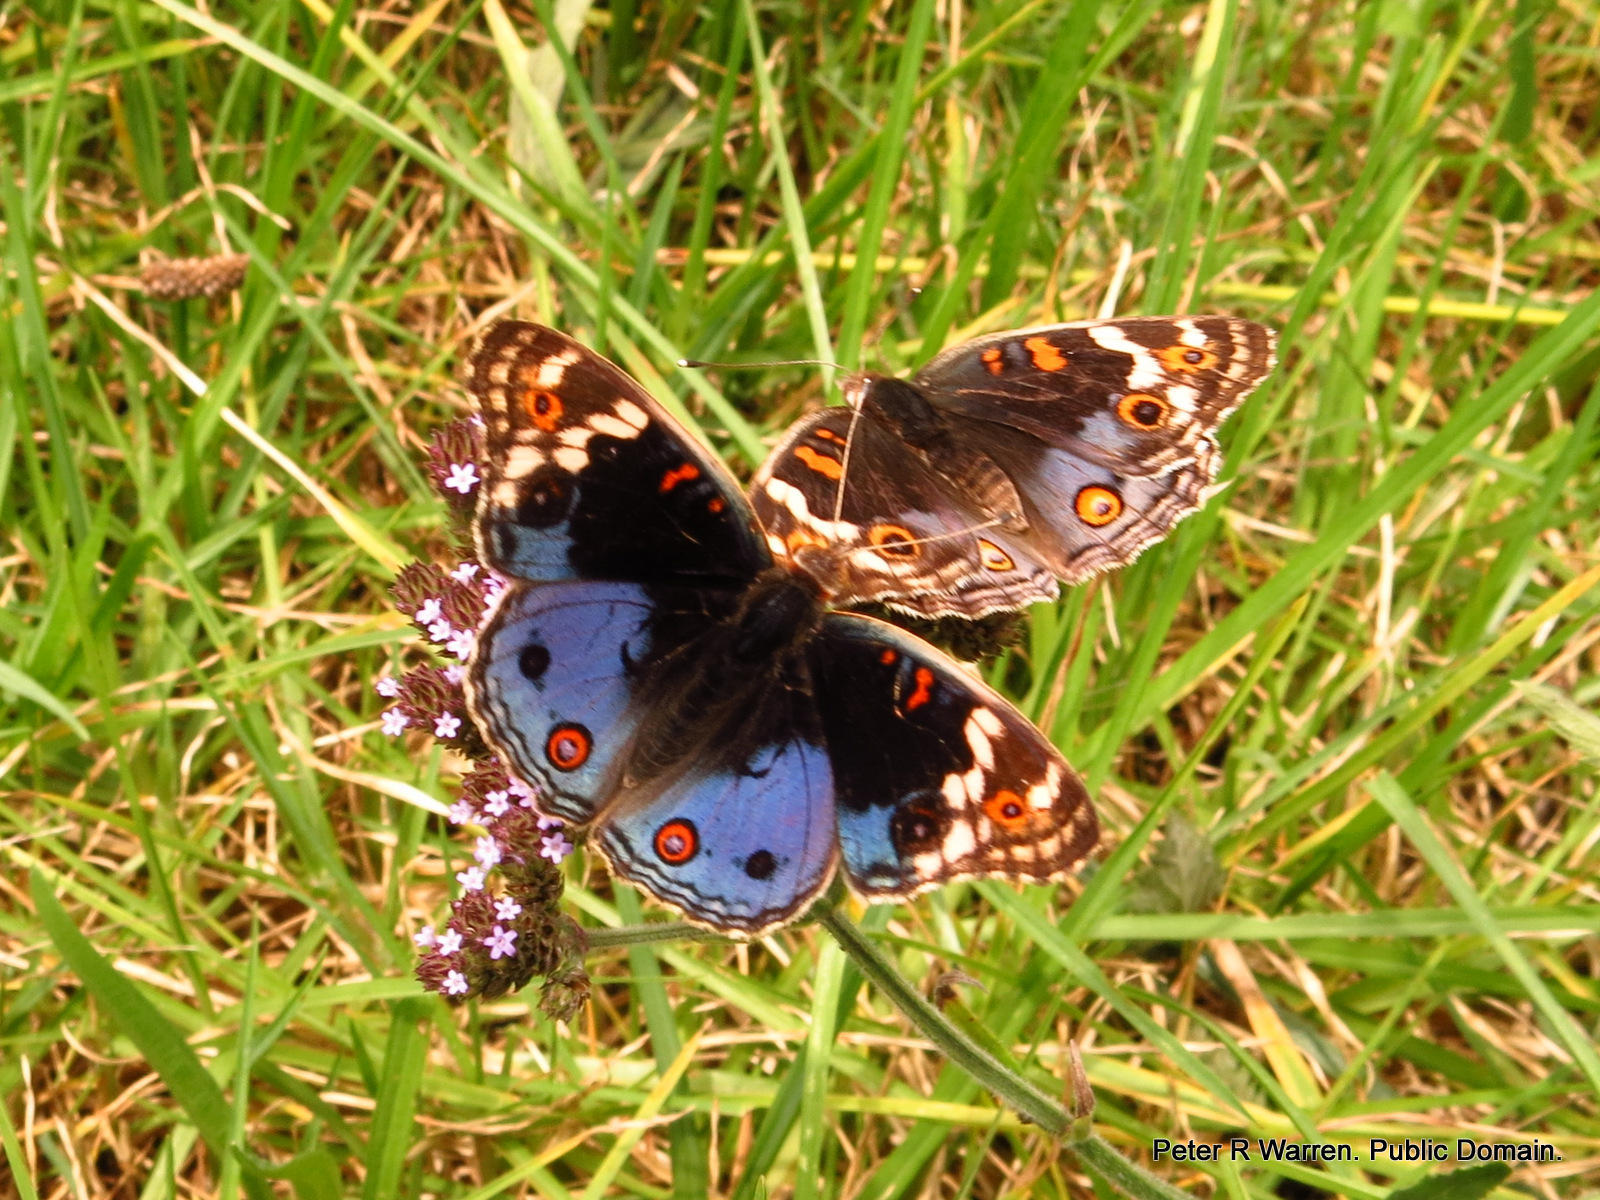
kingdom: Plantae
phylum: Tracheophyta
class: Magnoliopsida
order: Lamiales
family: Verbenaceae
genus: Verbena
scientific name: Verbena bonariensis
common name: Purpletop vervain
